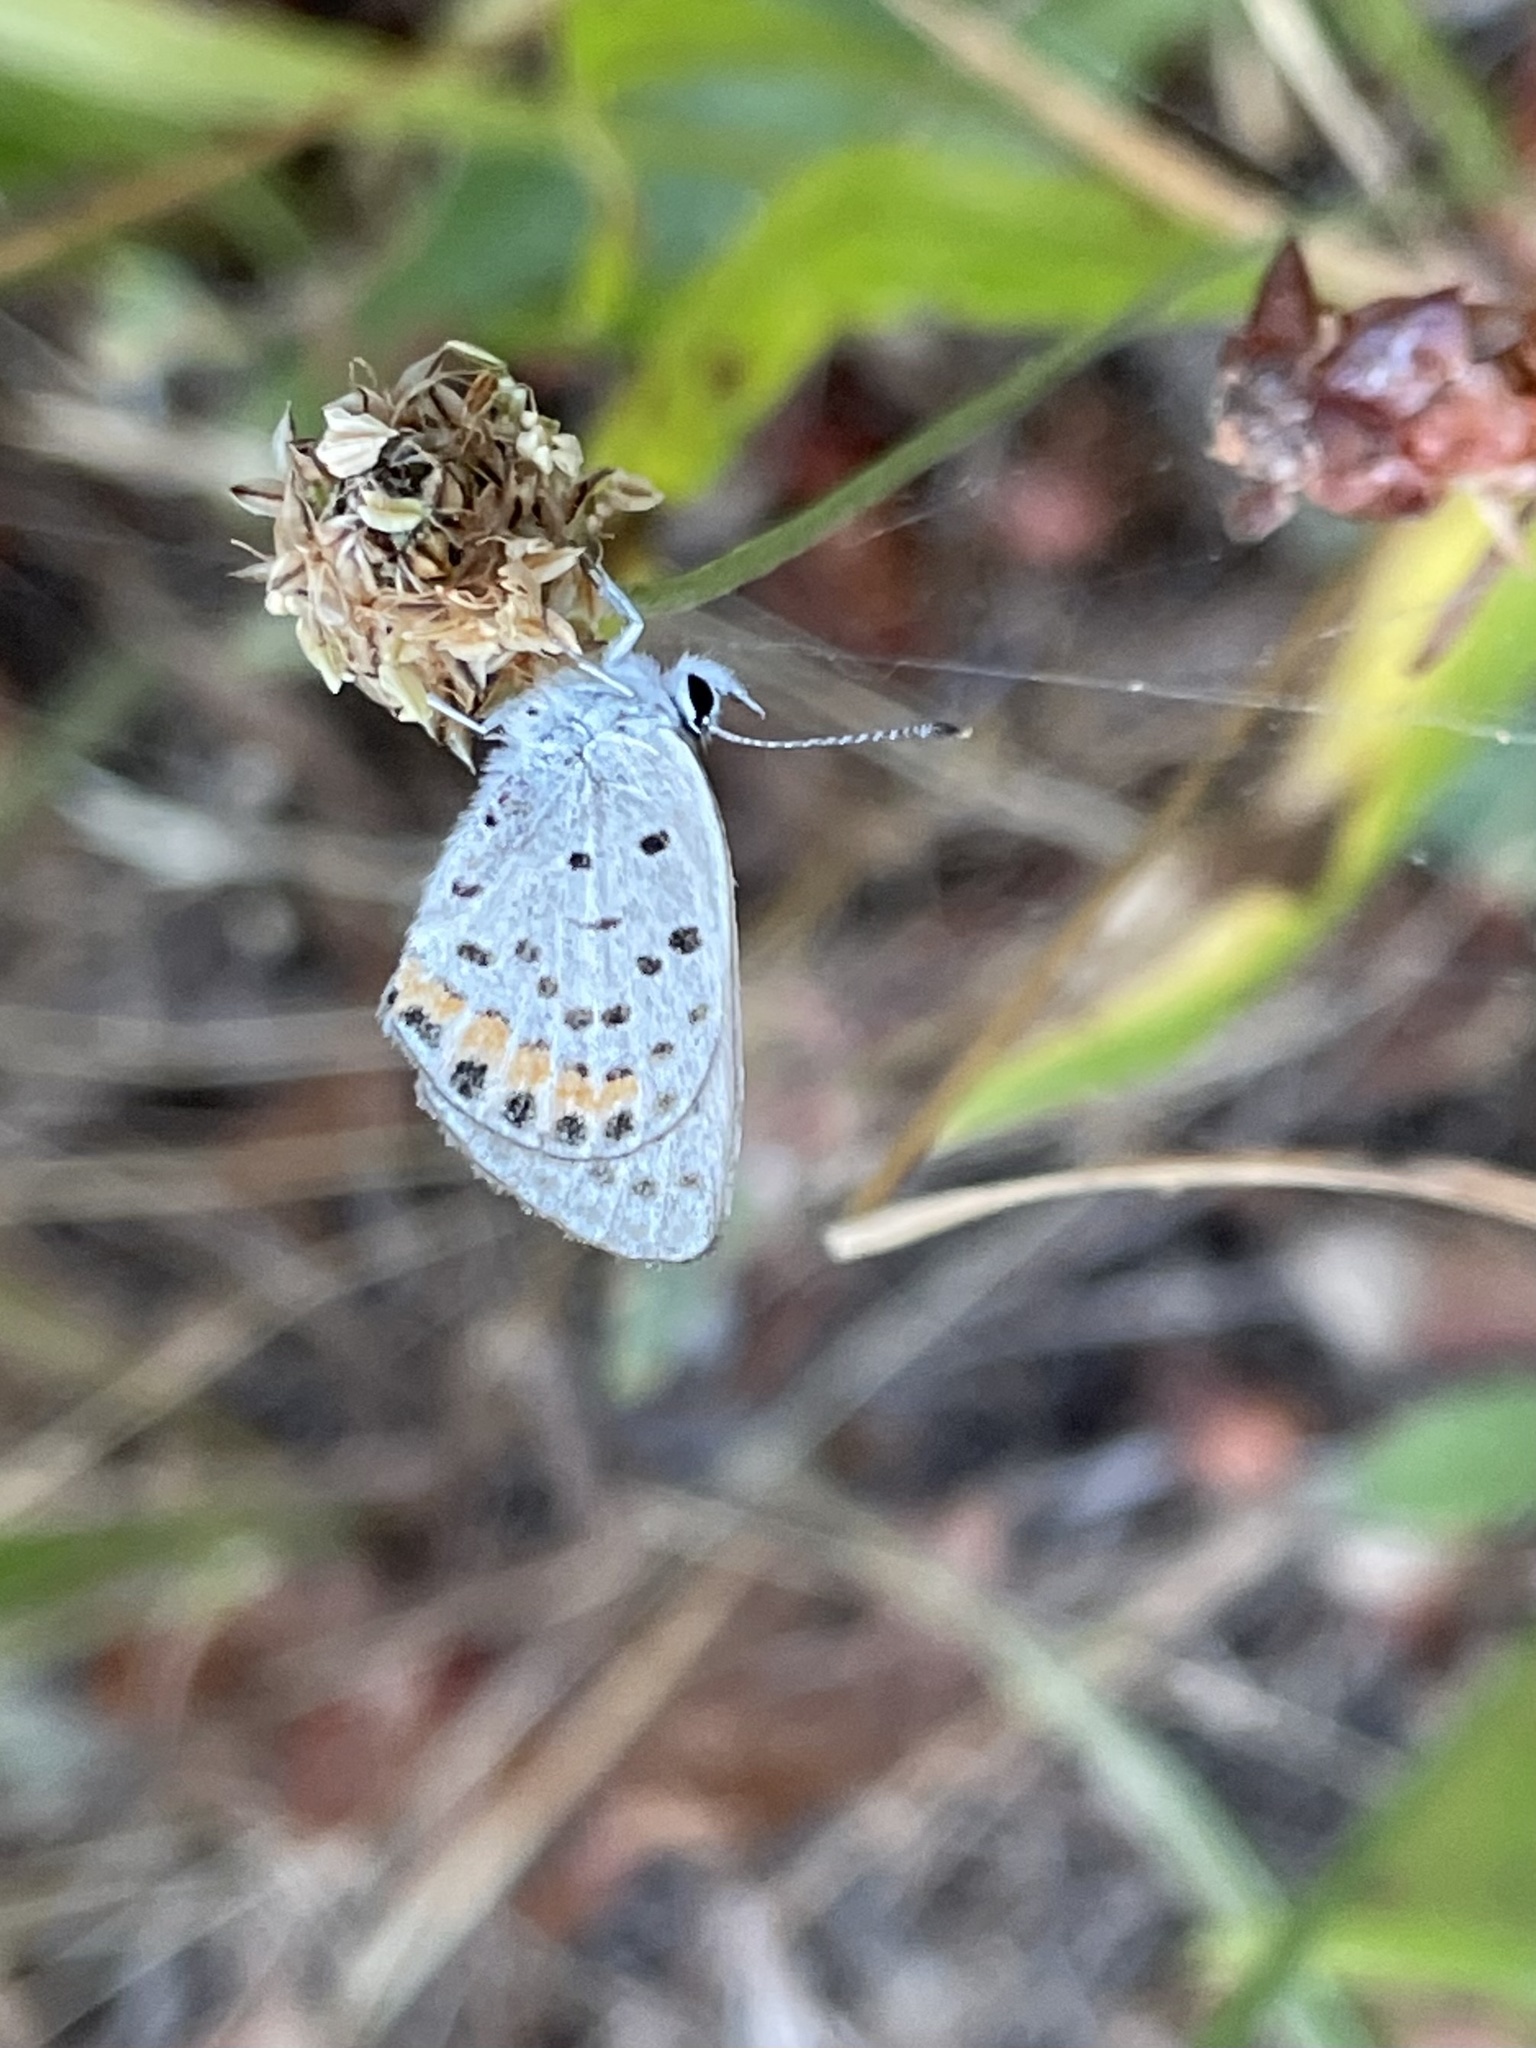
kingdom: Animalia
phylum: Arthropoda
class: Insecta
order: Lepidoptera
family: Lycaenidae
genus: Icaricia
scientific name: Icaricia acmon
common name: Acmon blue
